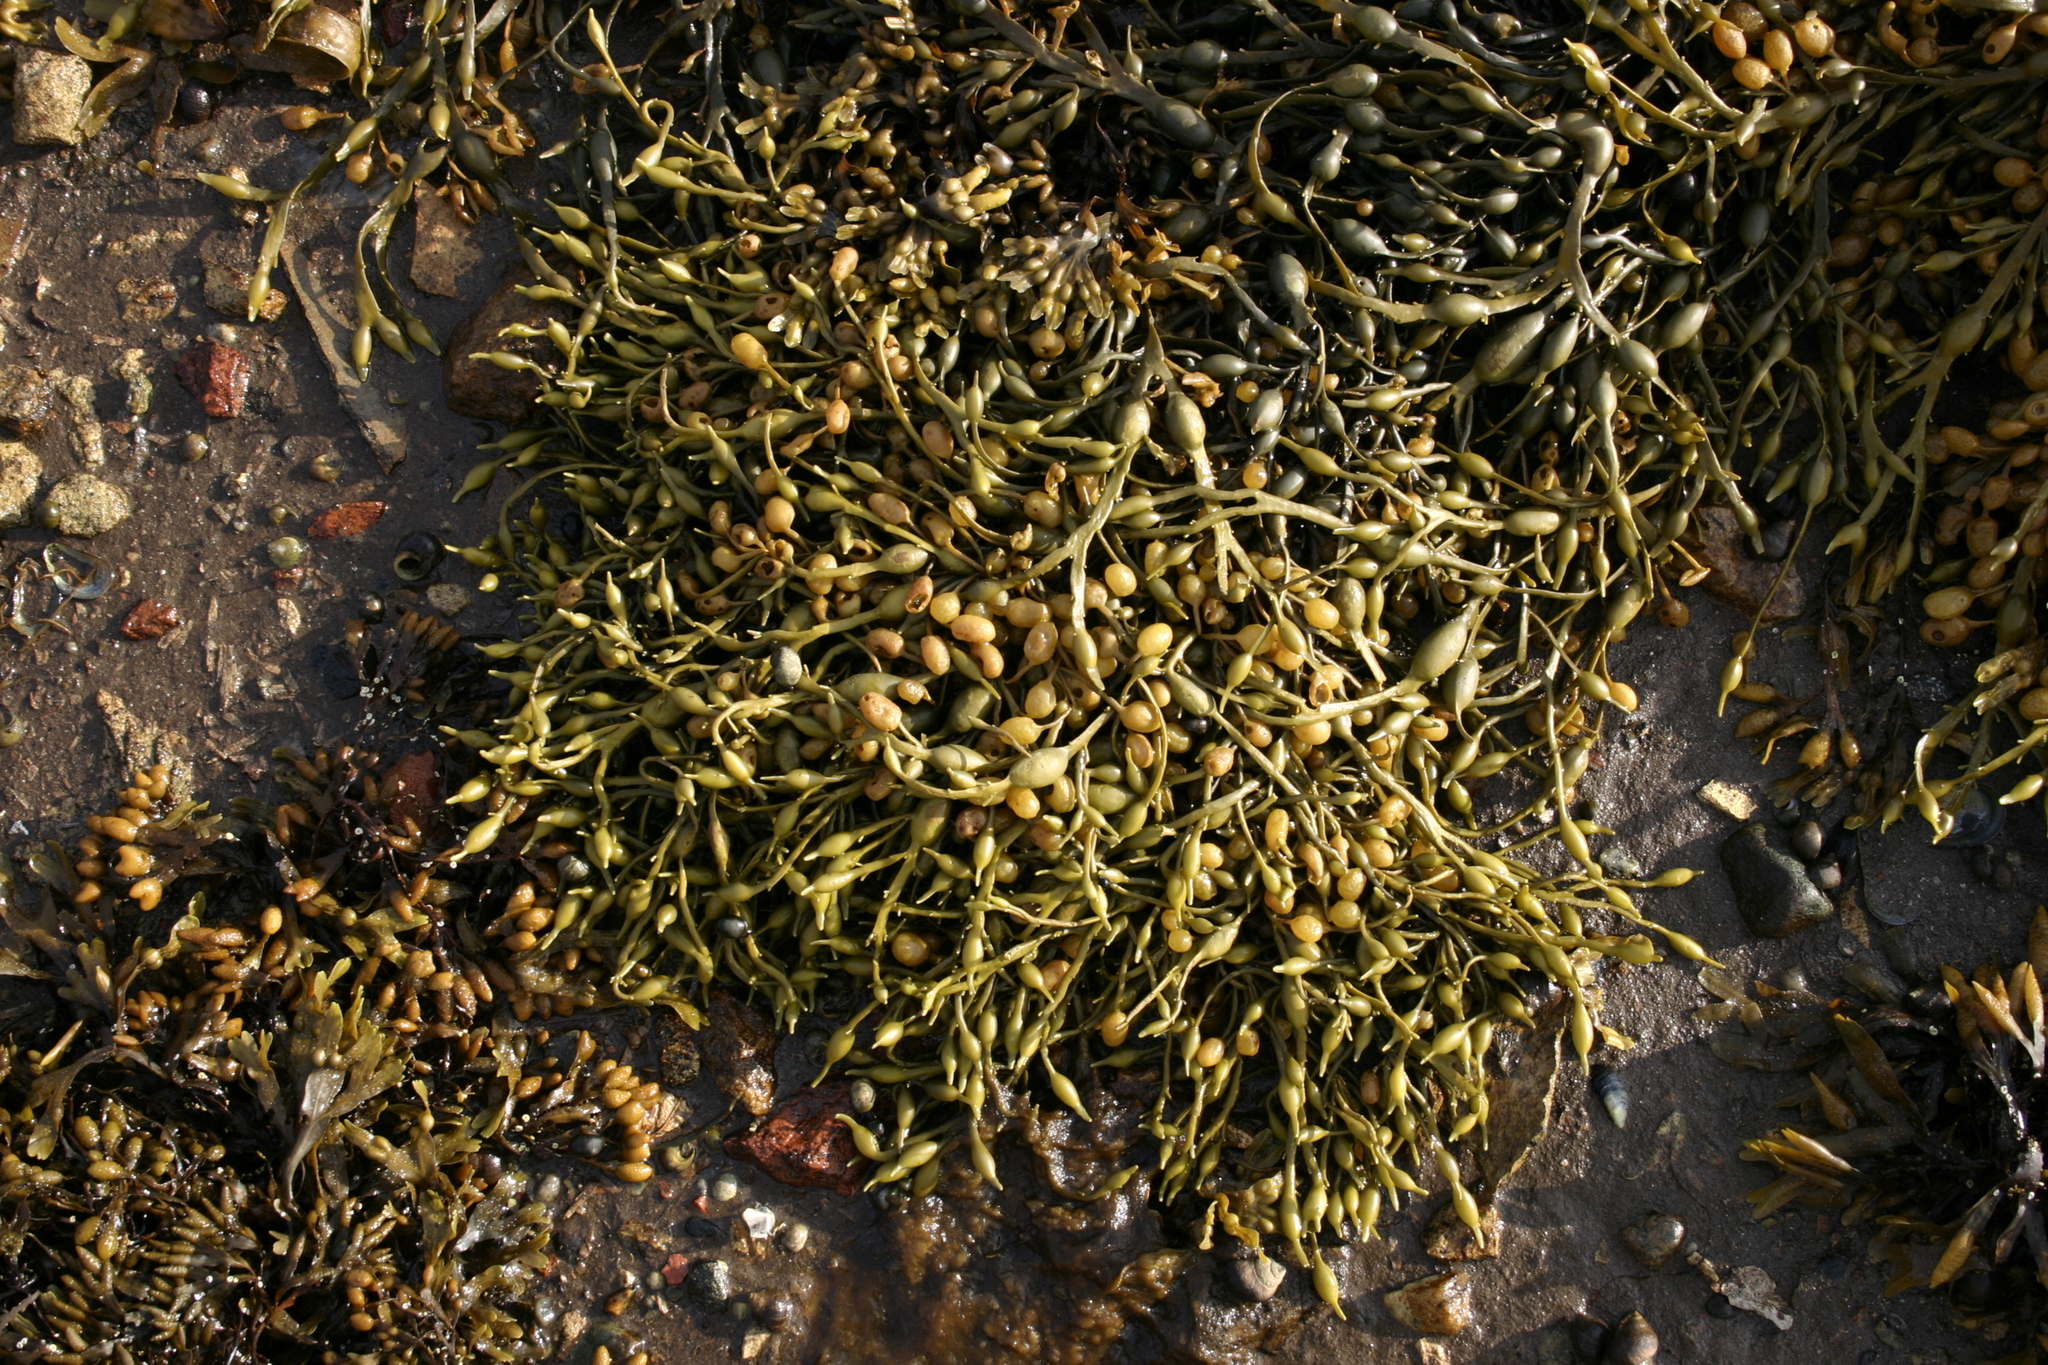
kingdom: Chromista
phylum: Ochrophyta
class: Phaeophyceae
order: Fucales
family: Fucaceae
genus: Ascophyllum
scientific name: Ascophyllum nodosum
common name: Knotted wrack
